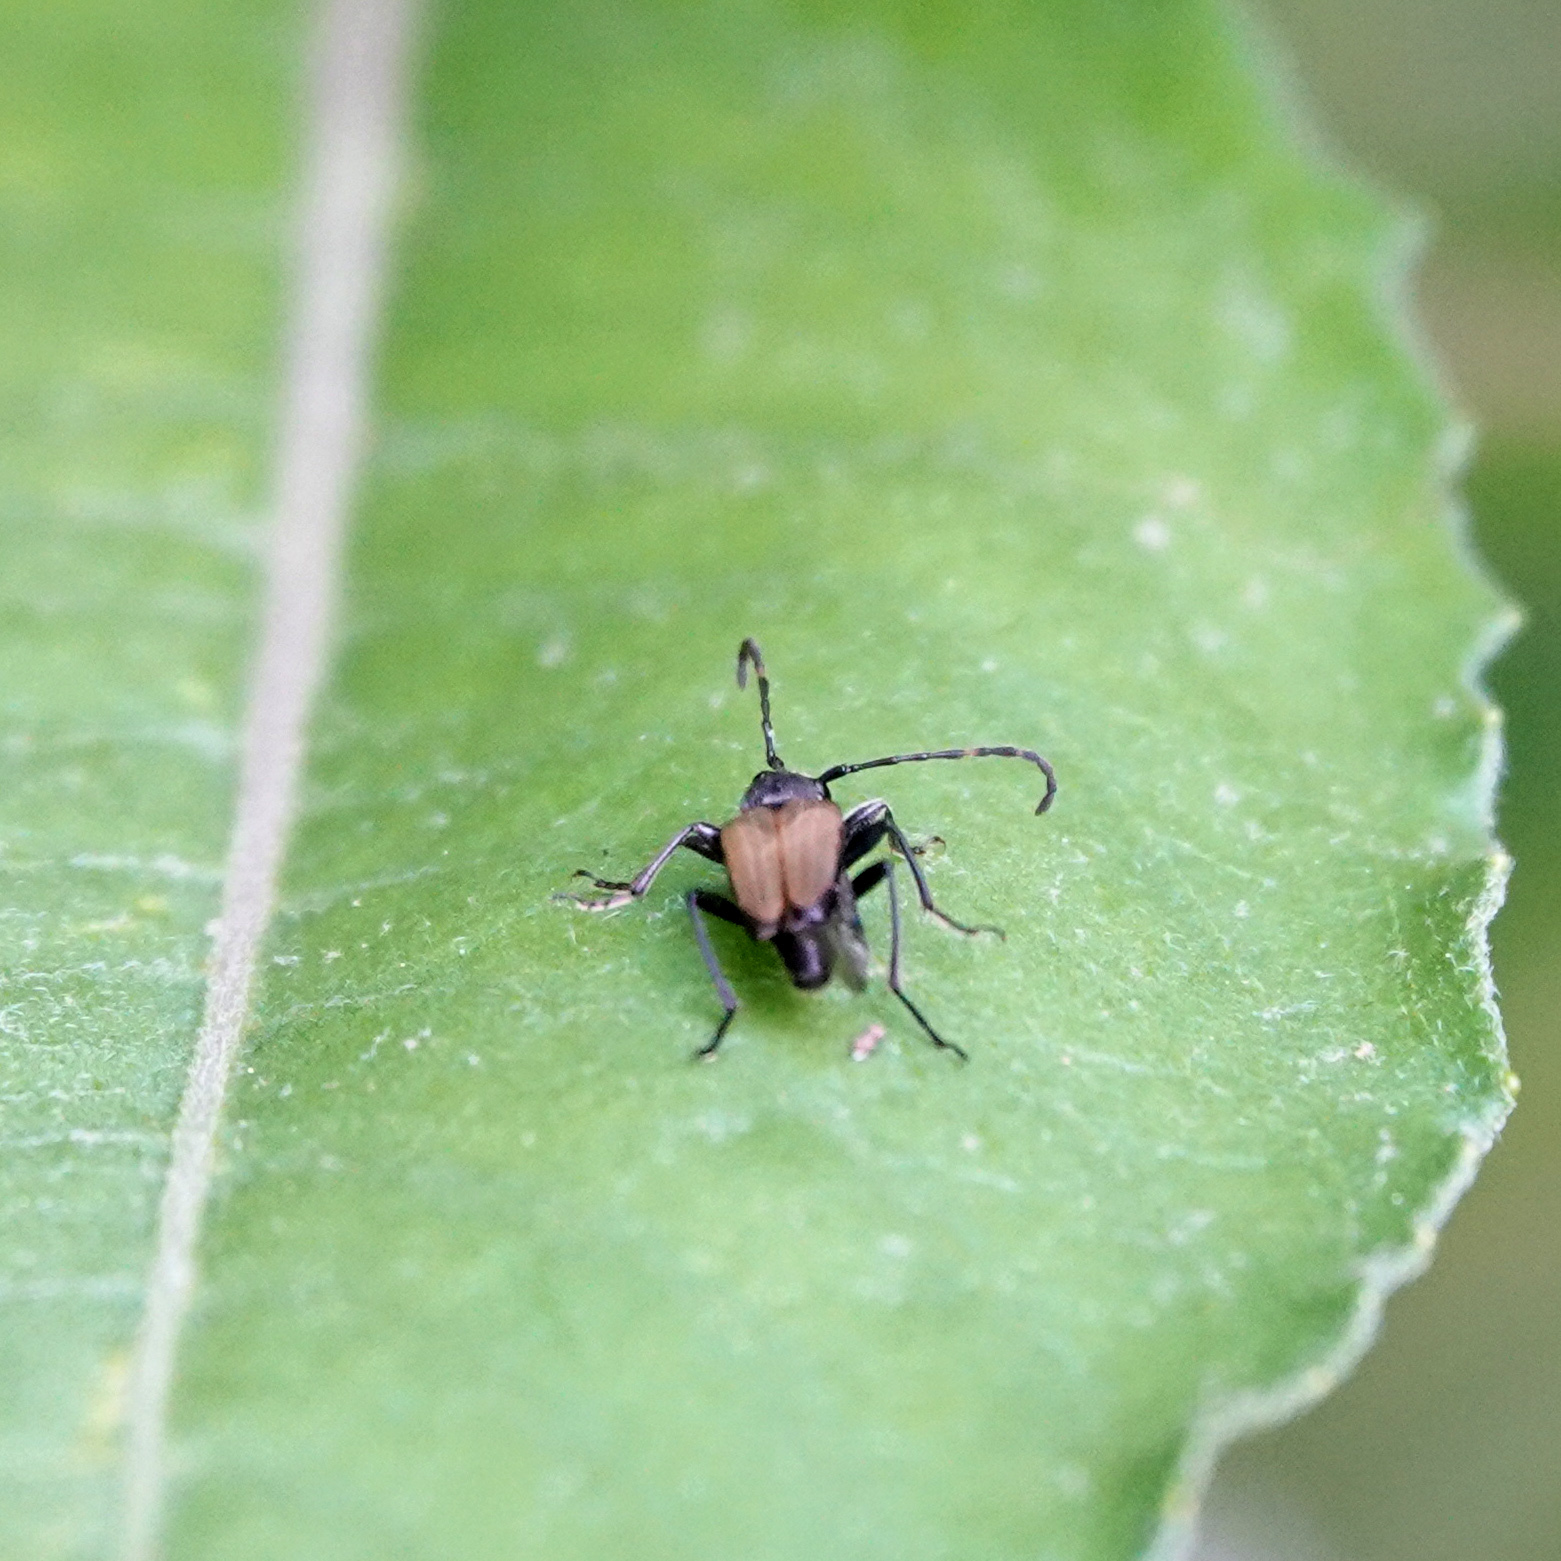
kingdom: Animalia
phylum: Arthropoda
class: Insecta
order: Coleoptera
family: Cerambycidae
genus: Trigonarthris
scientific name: Trigonarthris proxima
